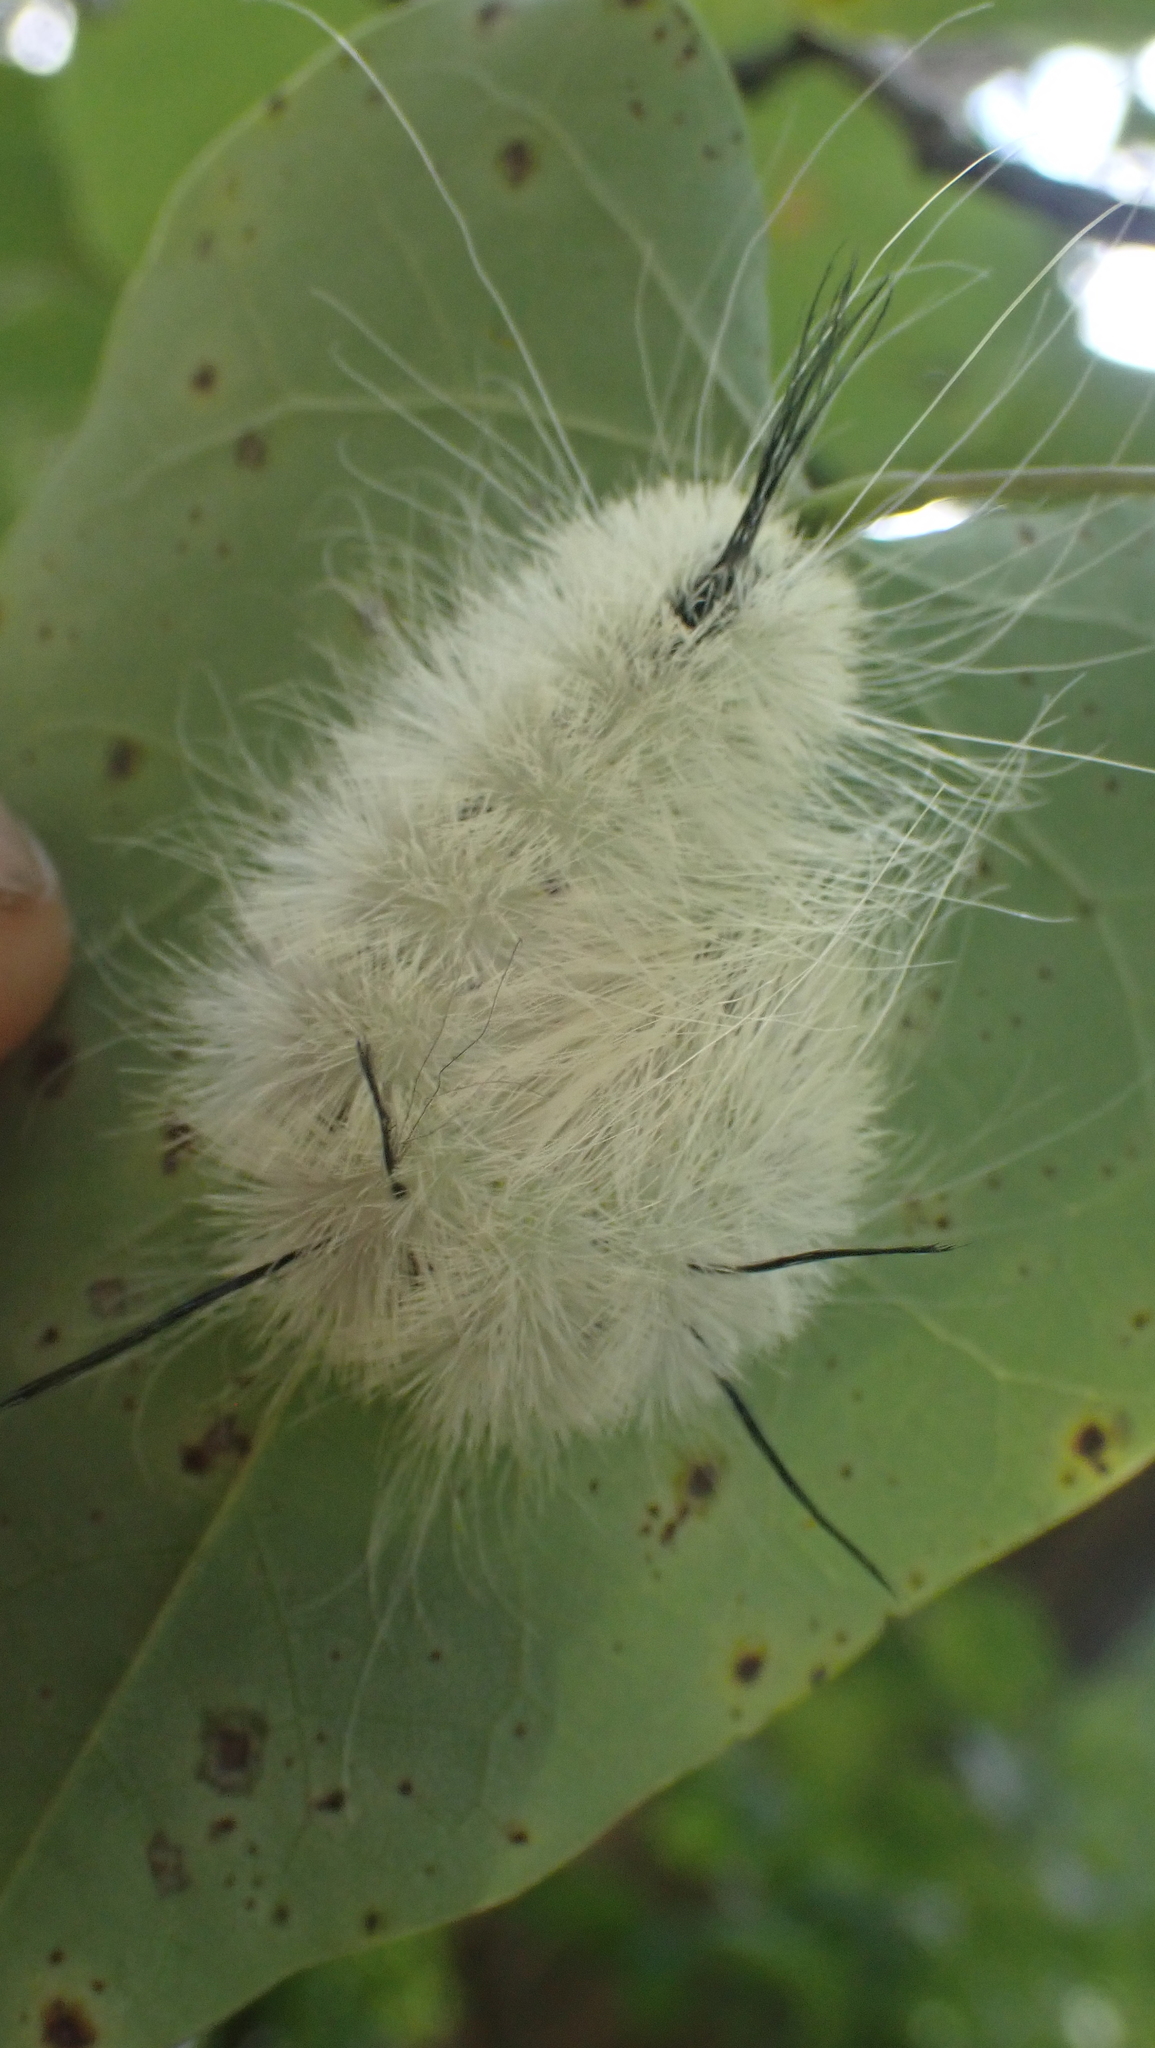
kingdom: Animalia
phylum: Arthropoda
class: Insecta
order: Lepidoptera
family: Noctuidae
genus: Acronicta
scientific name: Acronicta americana
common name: American dagger
